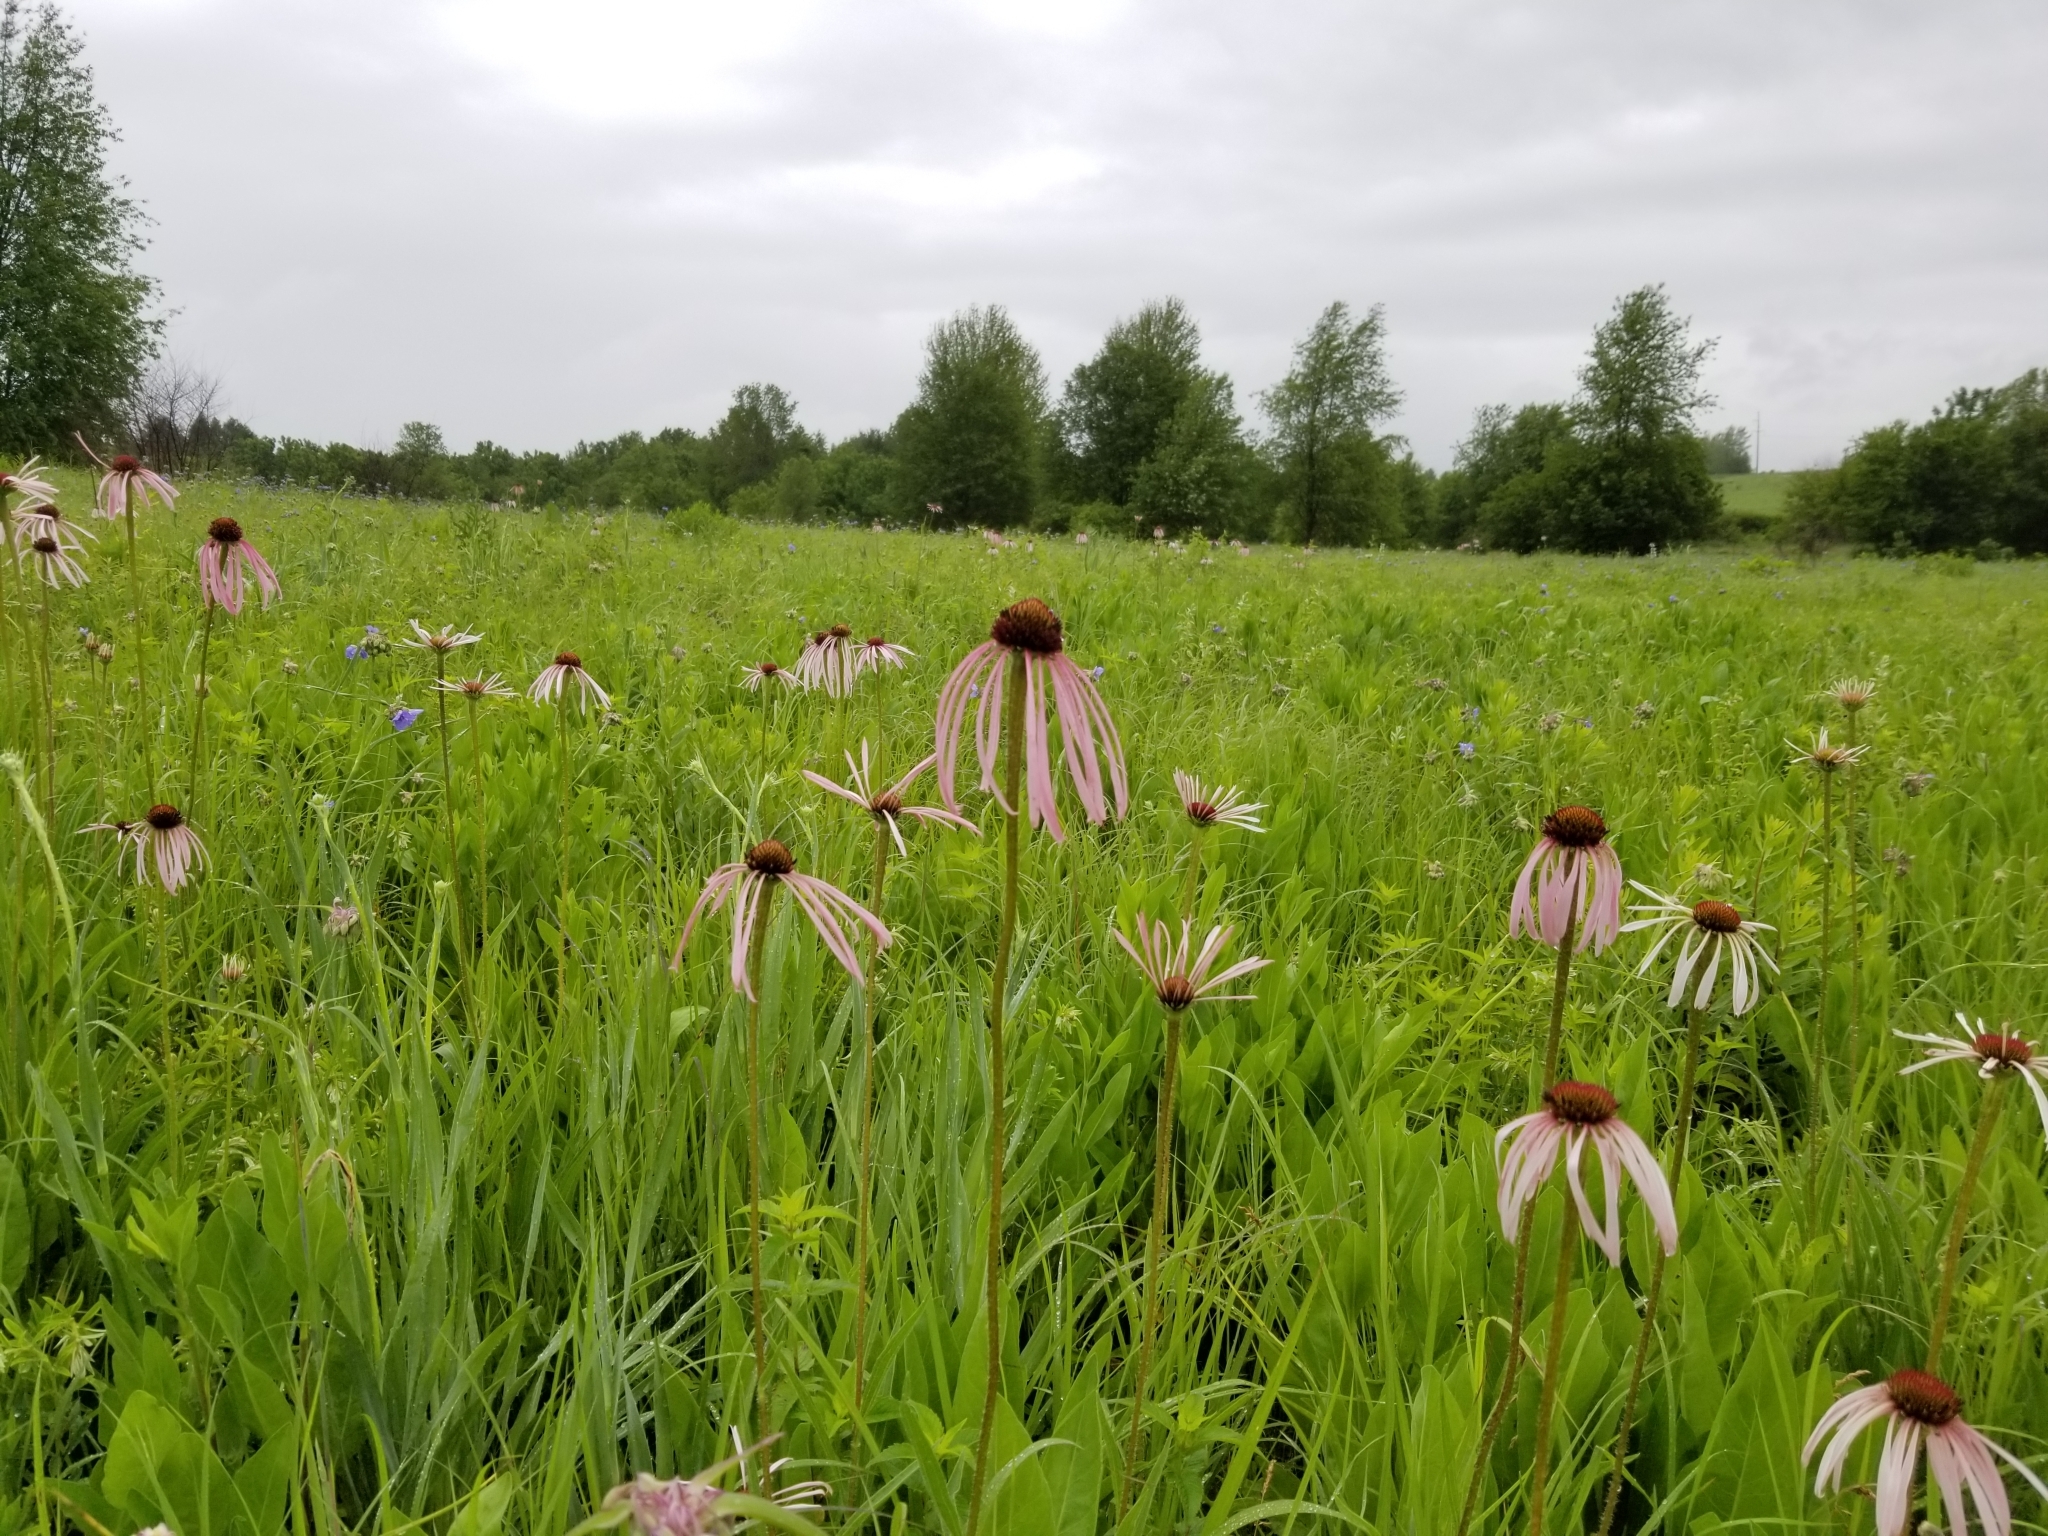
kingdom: Plantae
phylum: Tracheophyta
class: Magnoliopsida
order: Asterales
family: Asteraceae
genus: Echinacea
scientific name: Echinacea pallida
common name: Pale echinacea
